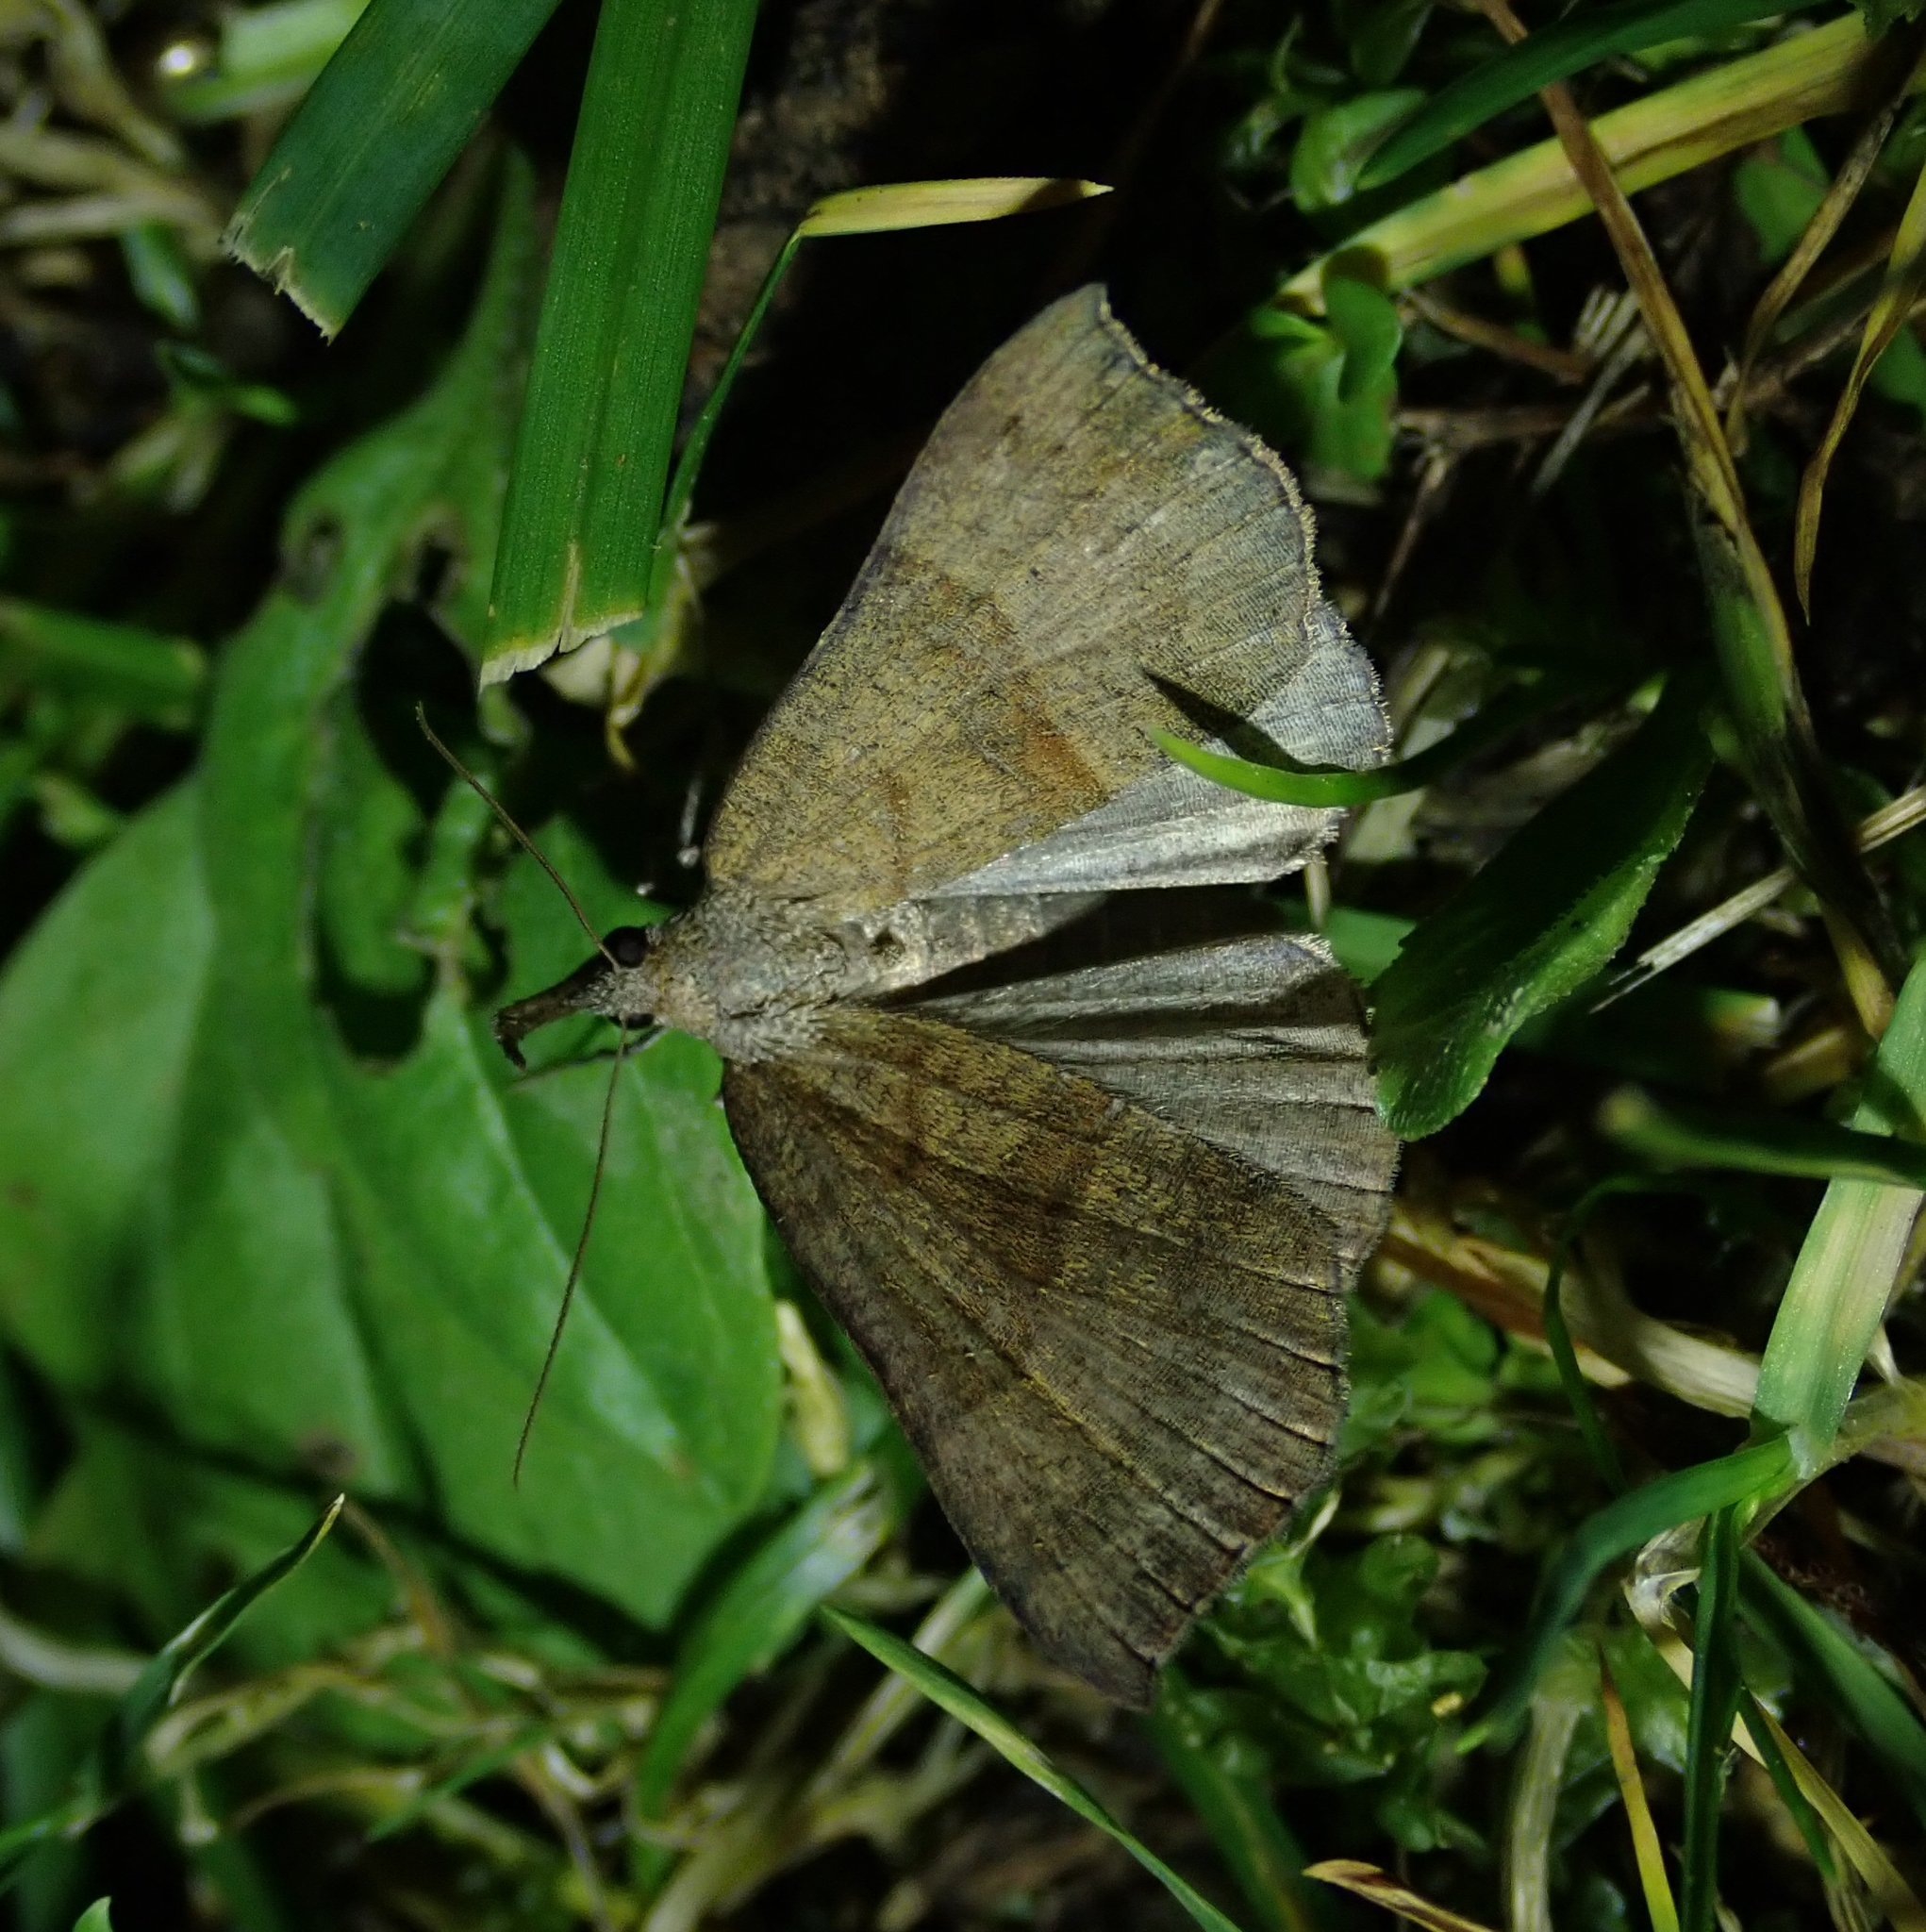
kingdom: Animalia
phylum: Arthropoda
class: Insecta
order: Lepidoptera
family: Erebidae
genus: Hypena
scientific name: Hypena proboscidalis
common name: Snout
